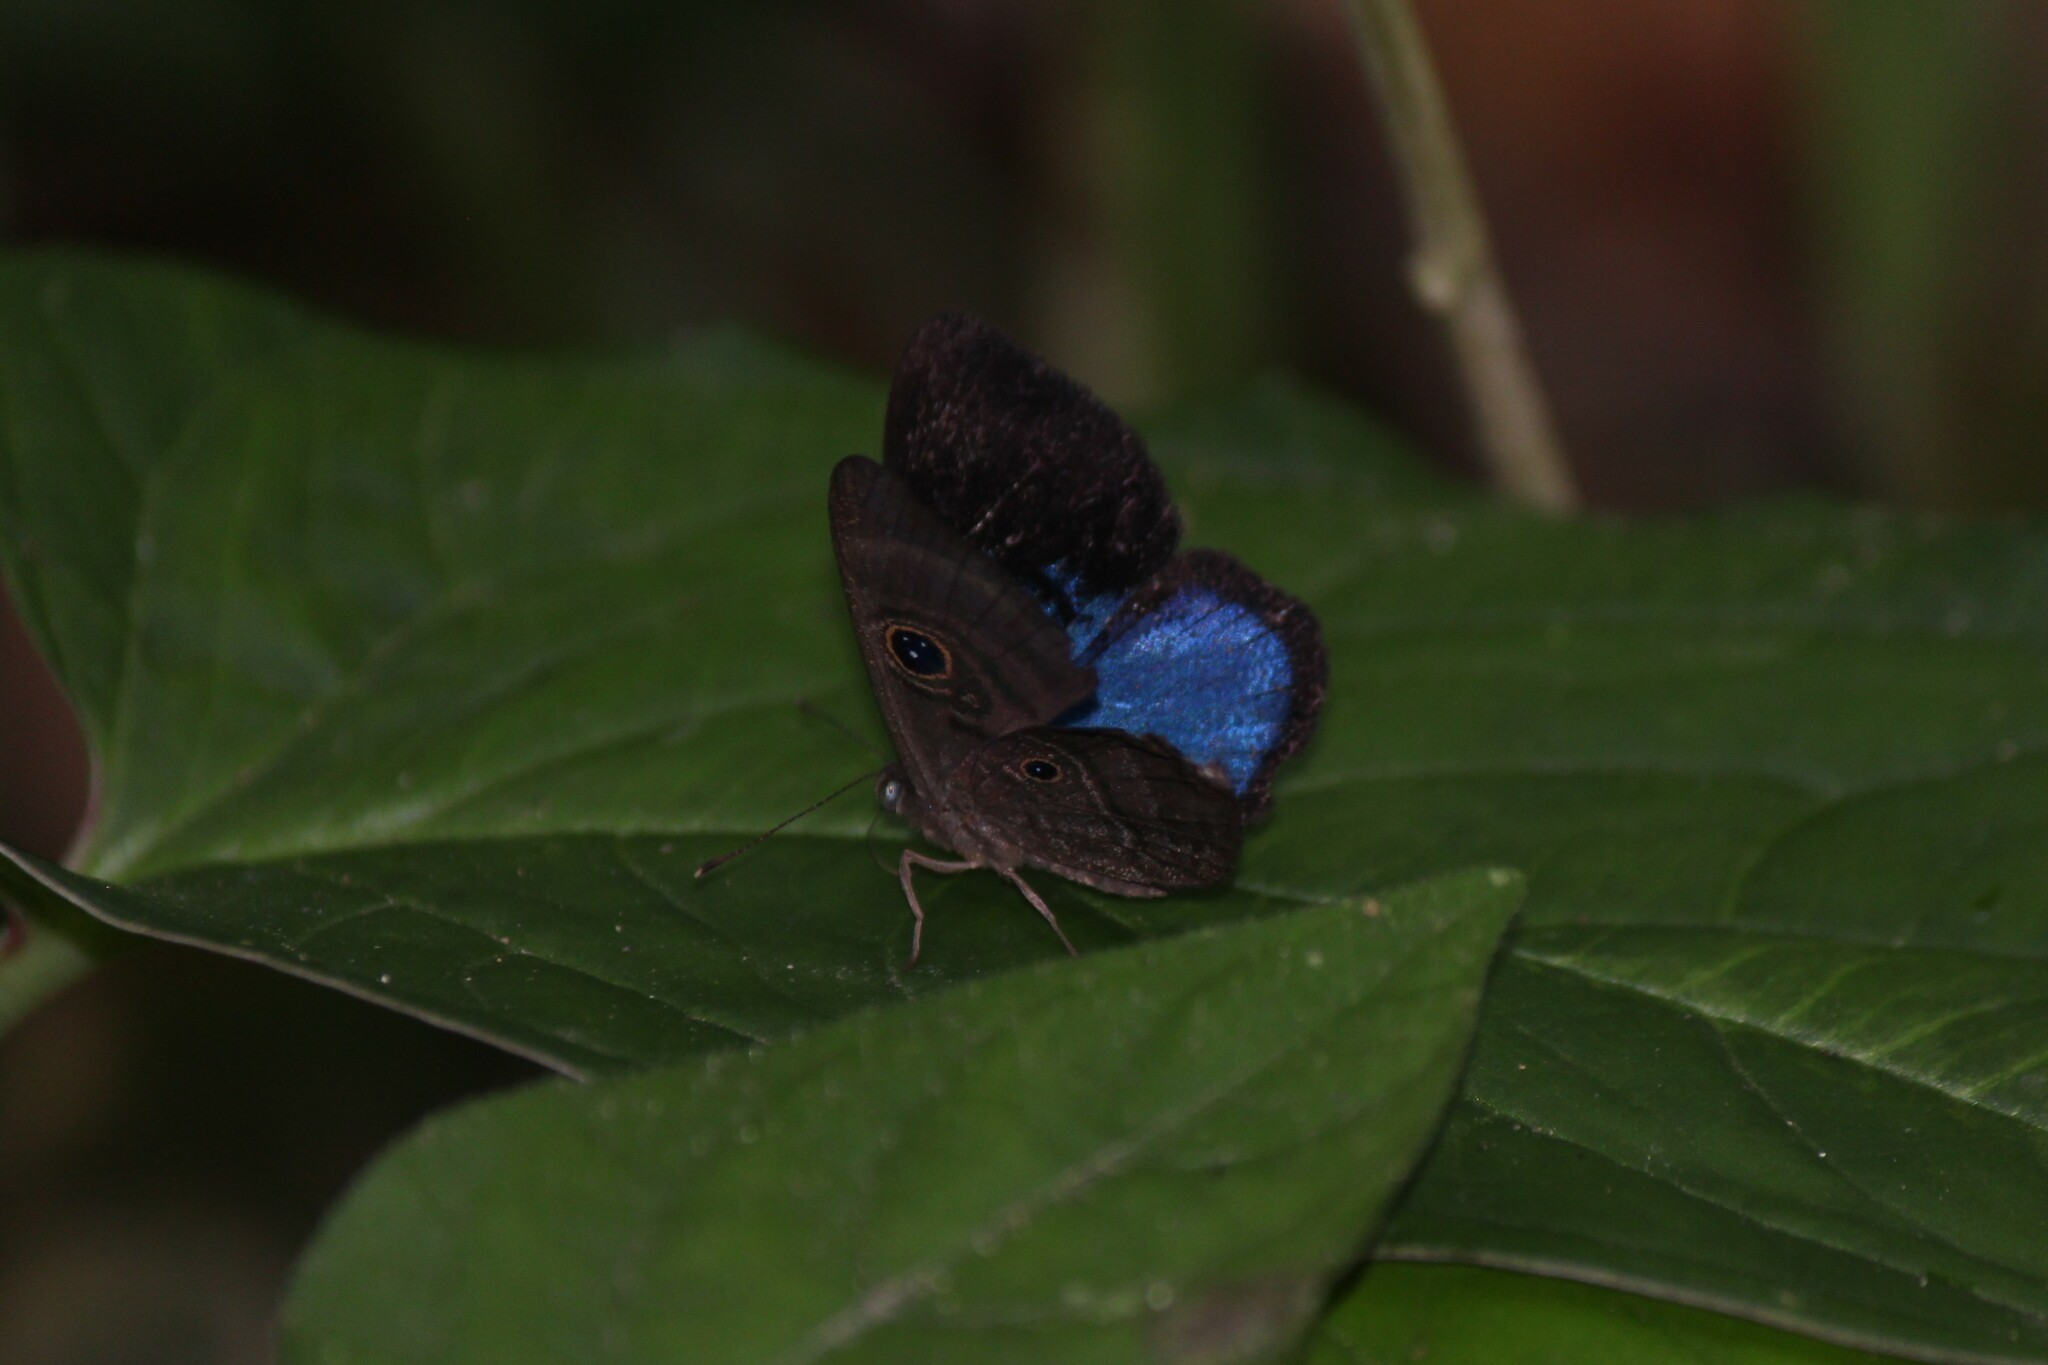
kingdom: Animalia
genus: Mesosemia
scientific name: Mesosemia asa
